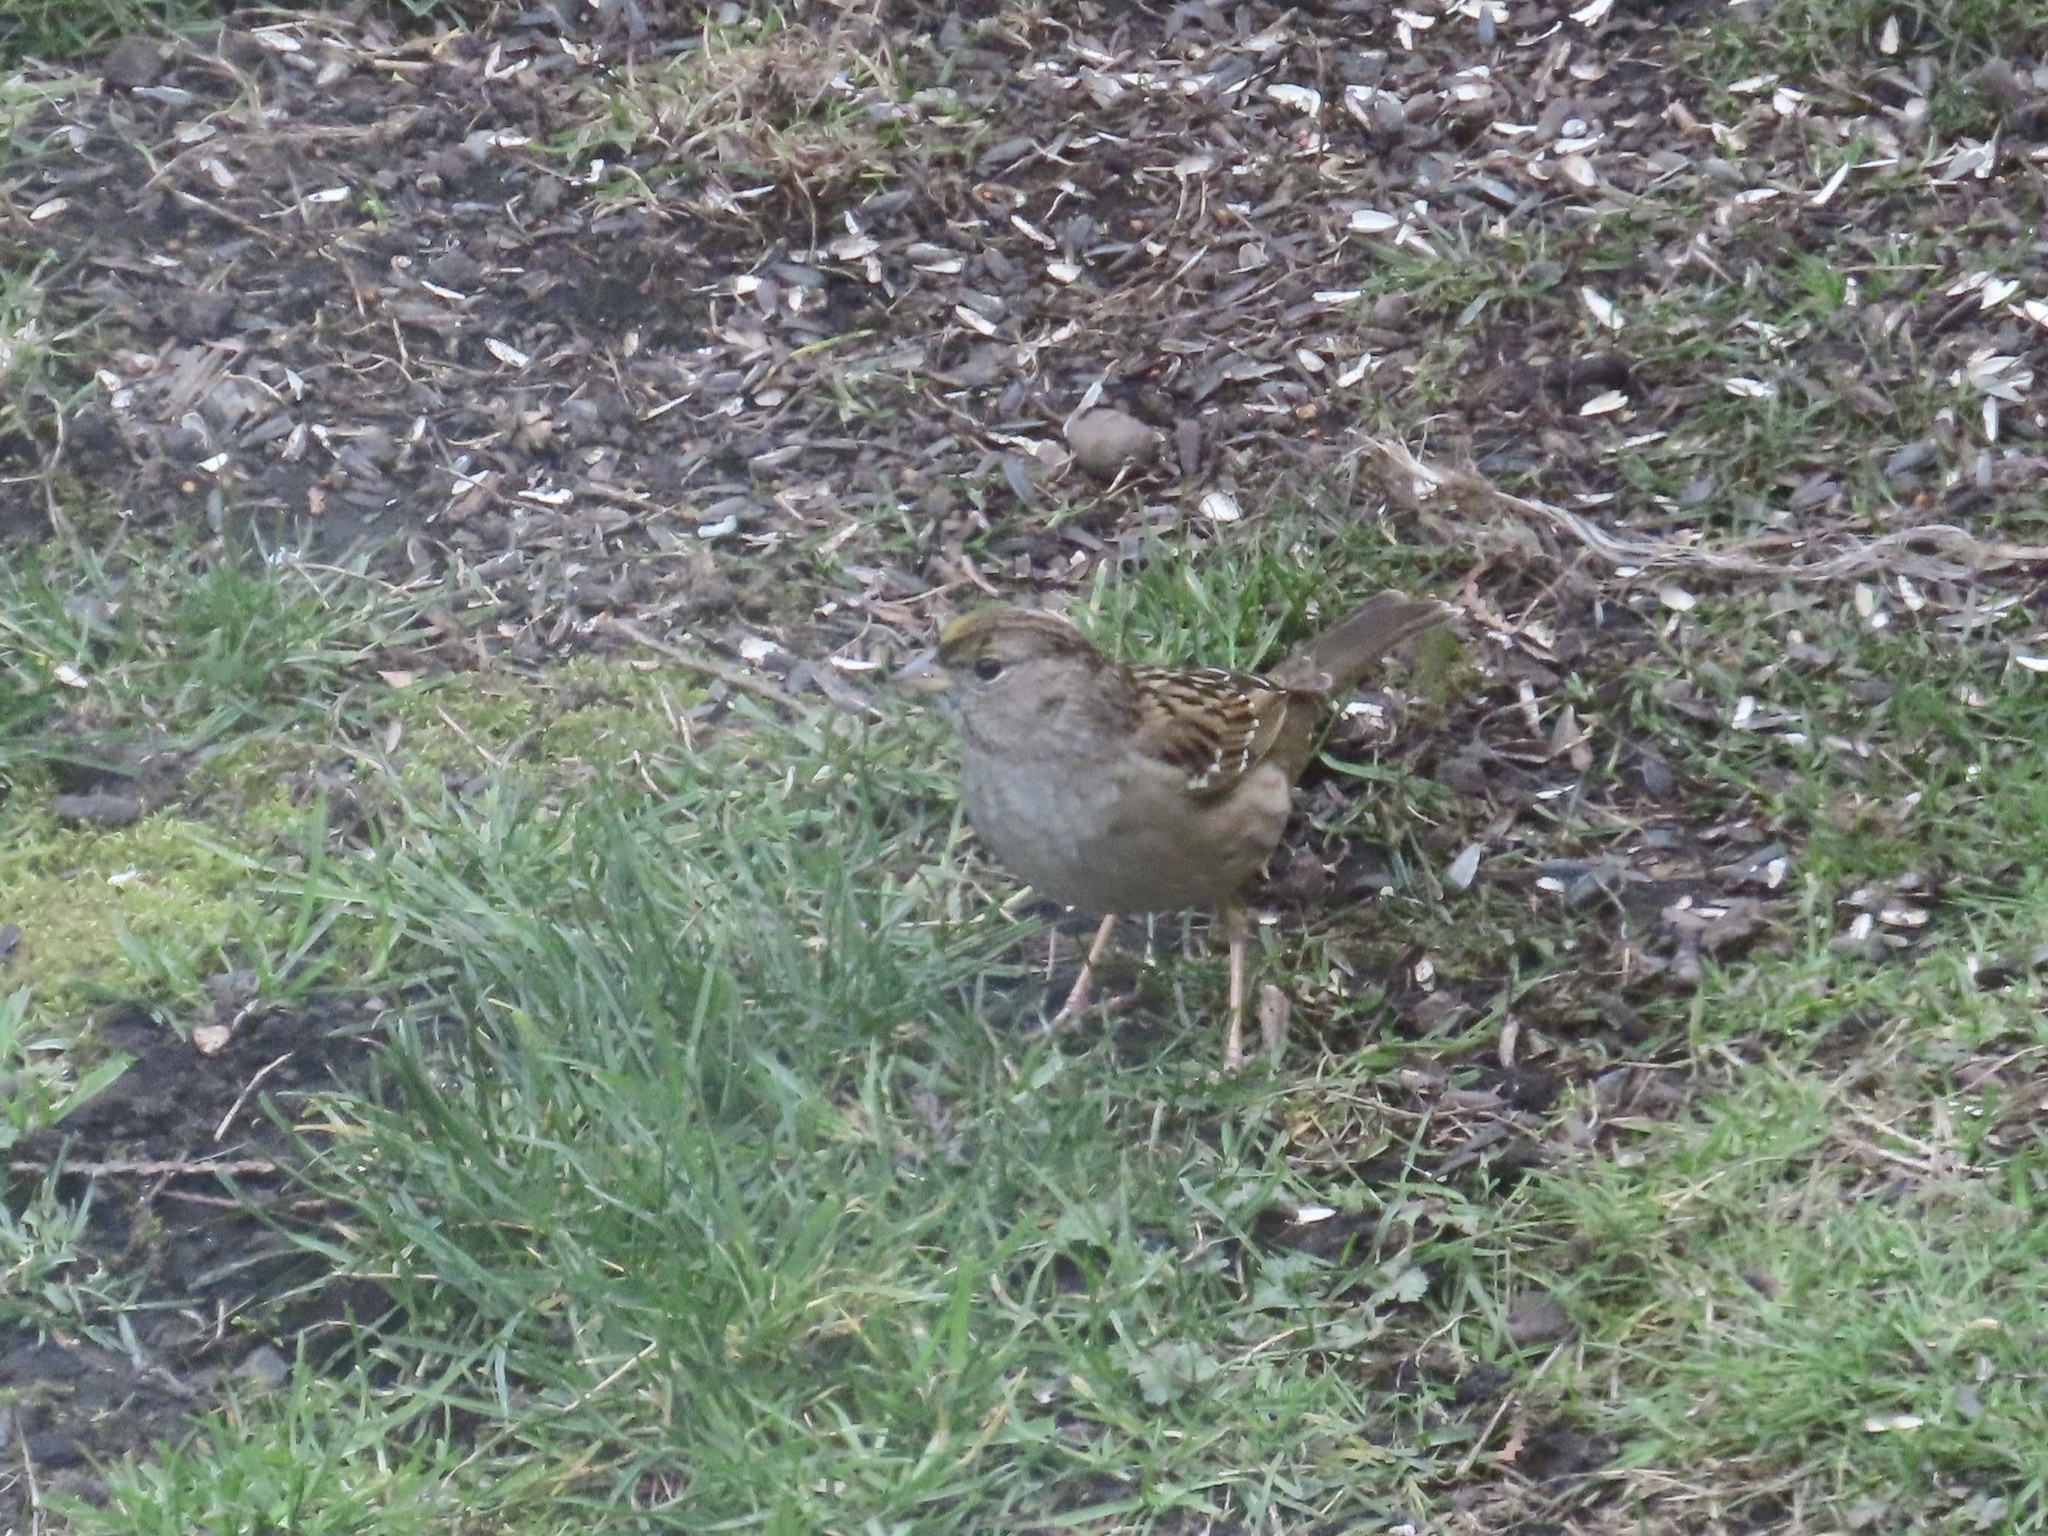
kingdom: Animalia
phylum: Chordata
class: Aves
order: Passeriformes
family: Passerellidae
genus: Zonotrichia
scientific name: Zonotrichia atricapilla
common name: Golden-crowned sparrow
